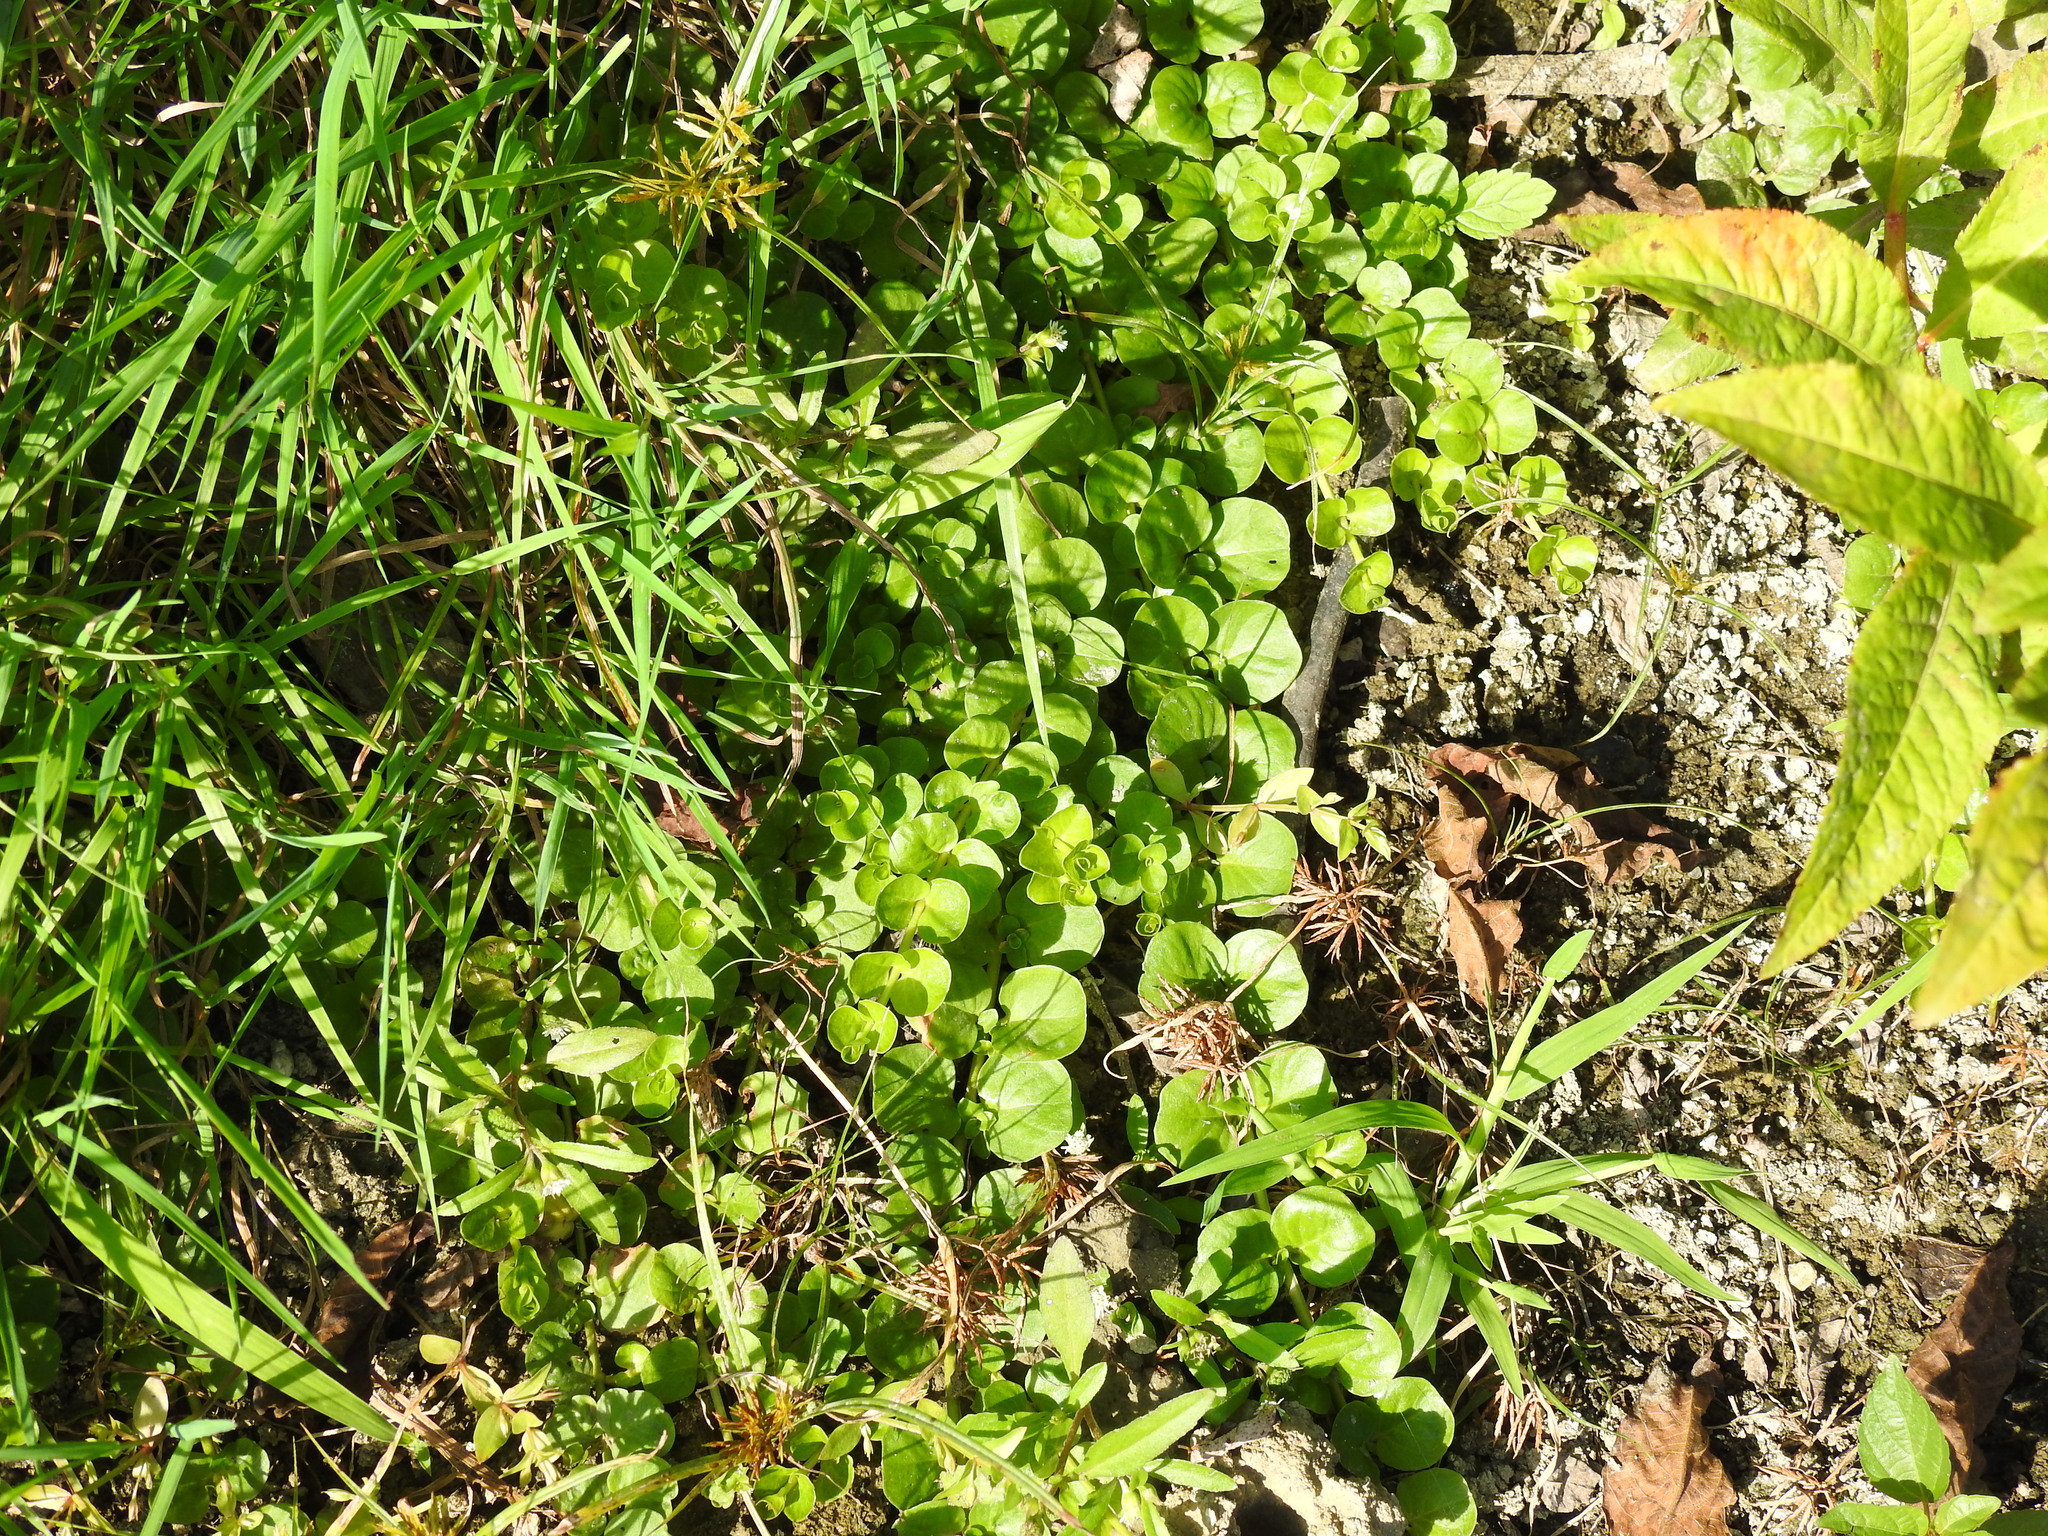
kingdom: Plantae
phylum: Tracheophyta
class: Magnoliopsida
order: Ericales
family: Primulaceae
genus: Lysimachia
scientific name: Lysimachia nummularia
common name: Moneywort
